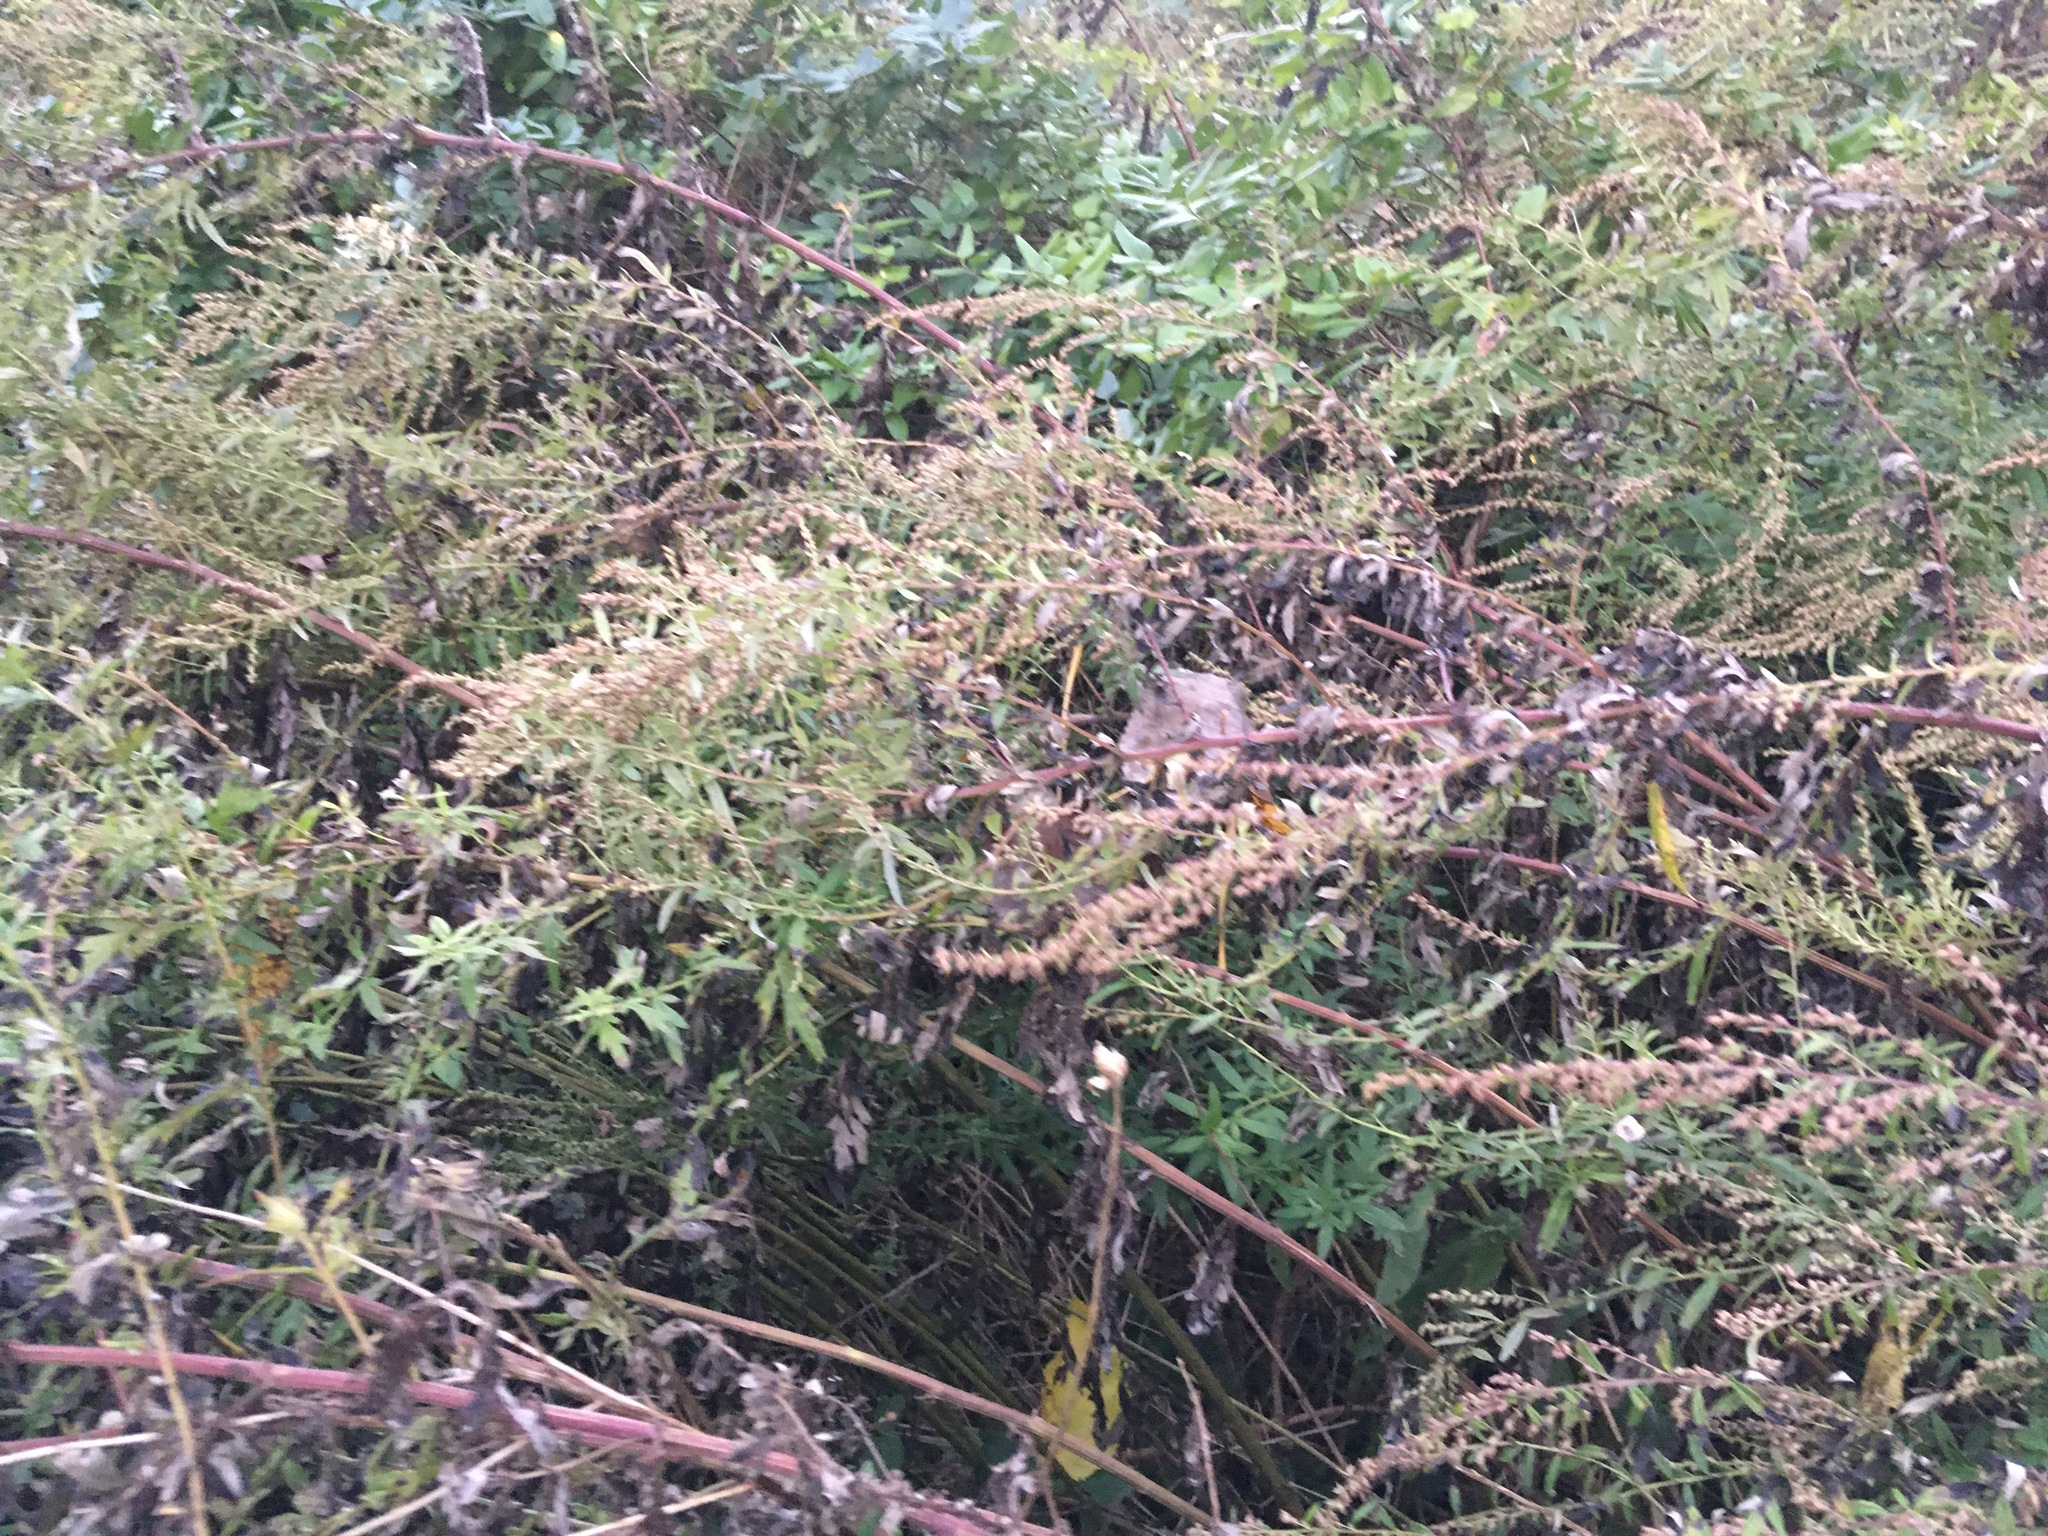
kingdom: Plantae
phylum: Tracheophyta
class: Magnoliopsida
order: Asterales
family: Asteraceae
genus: Artemisia
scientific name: Artemisia vulgaris
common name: Mugwort
